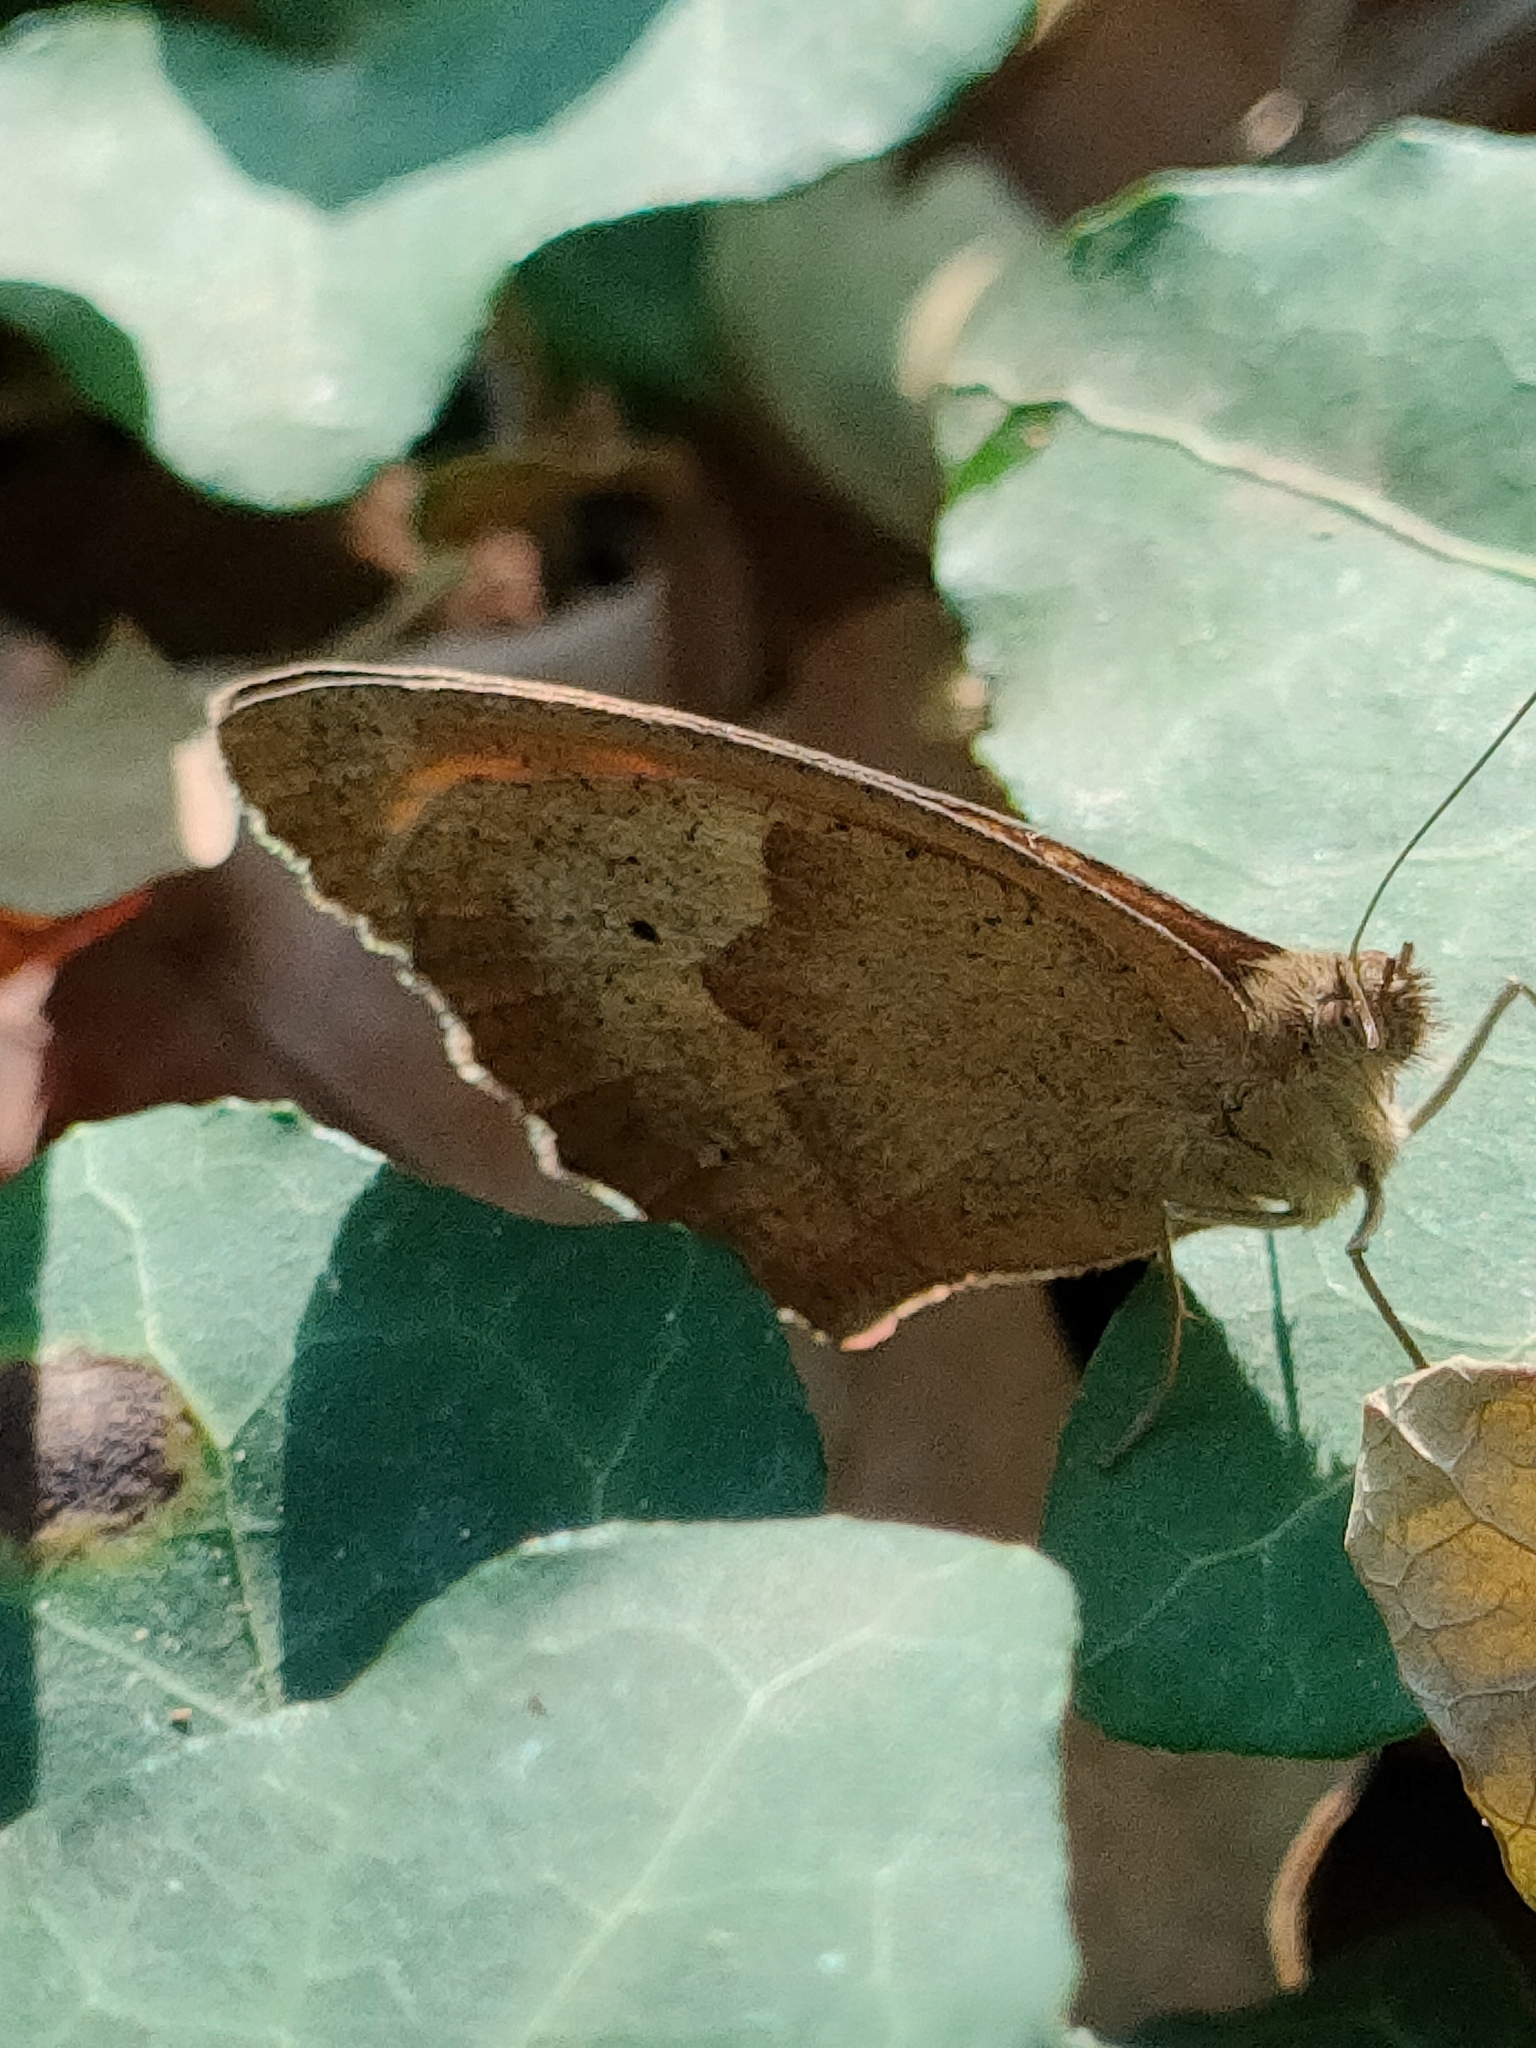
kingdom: Animalia
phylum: Arthropoda
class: Insecta
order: Lepidoptera
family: Nymphalidae
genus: Maniola
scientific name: Maniola jurtina
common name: Meadow brown
